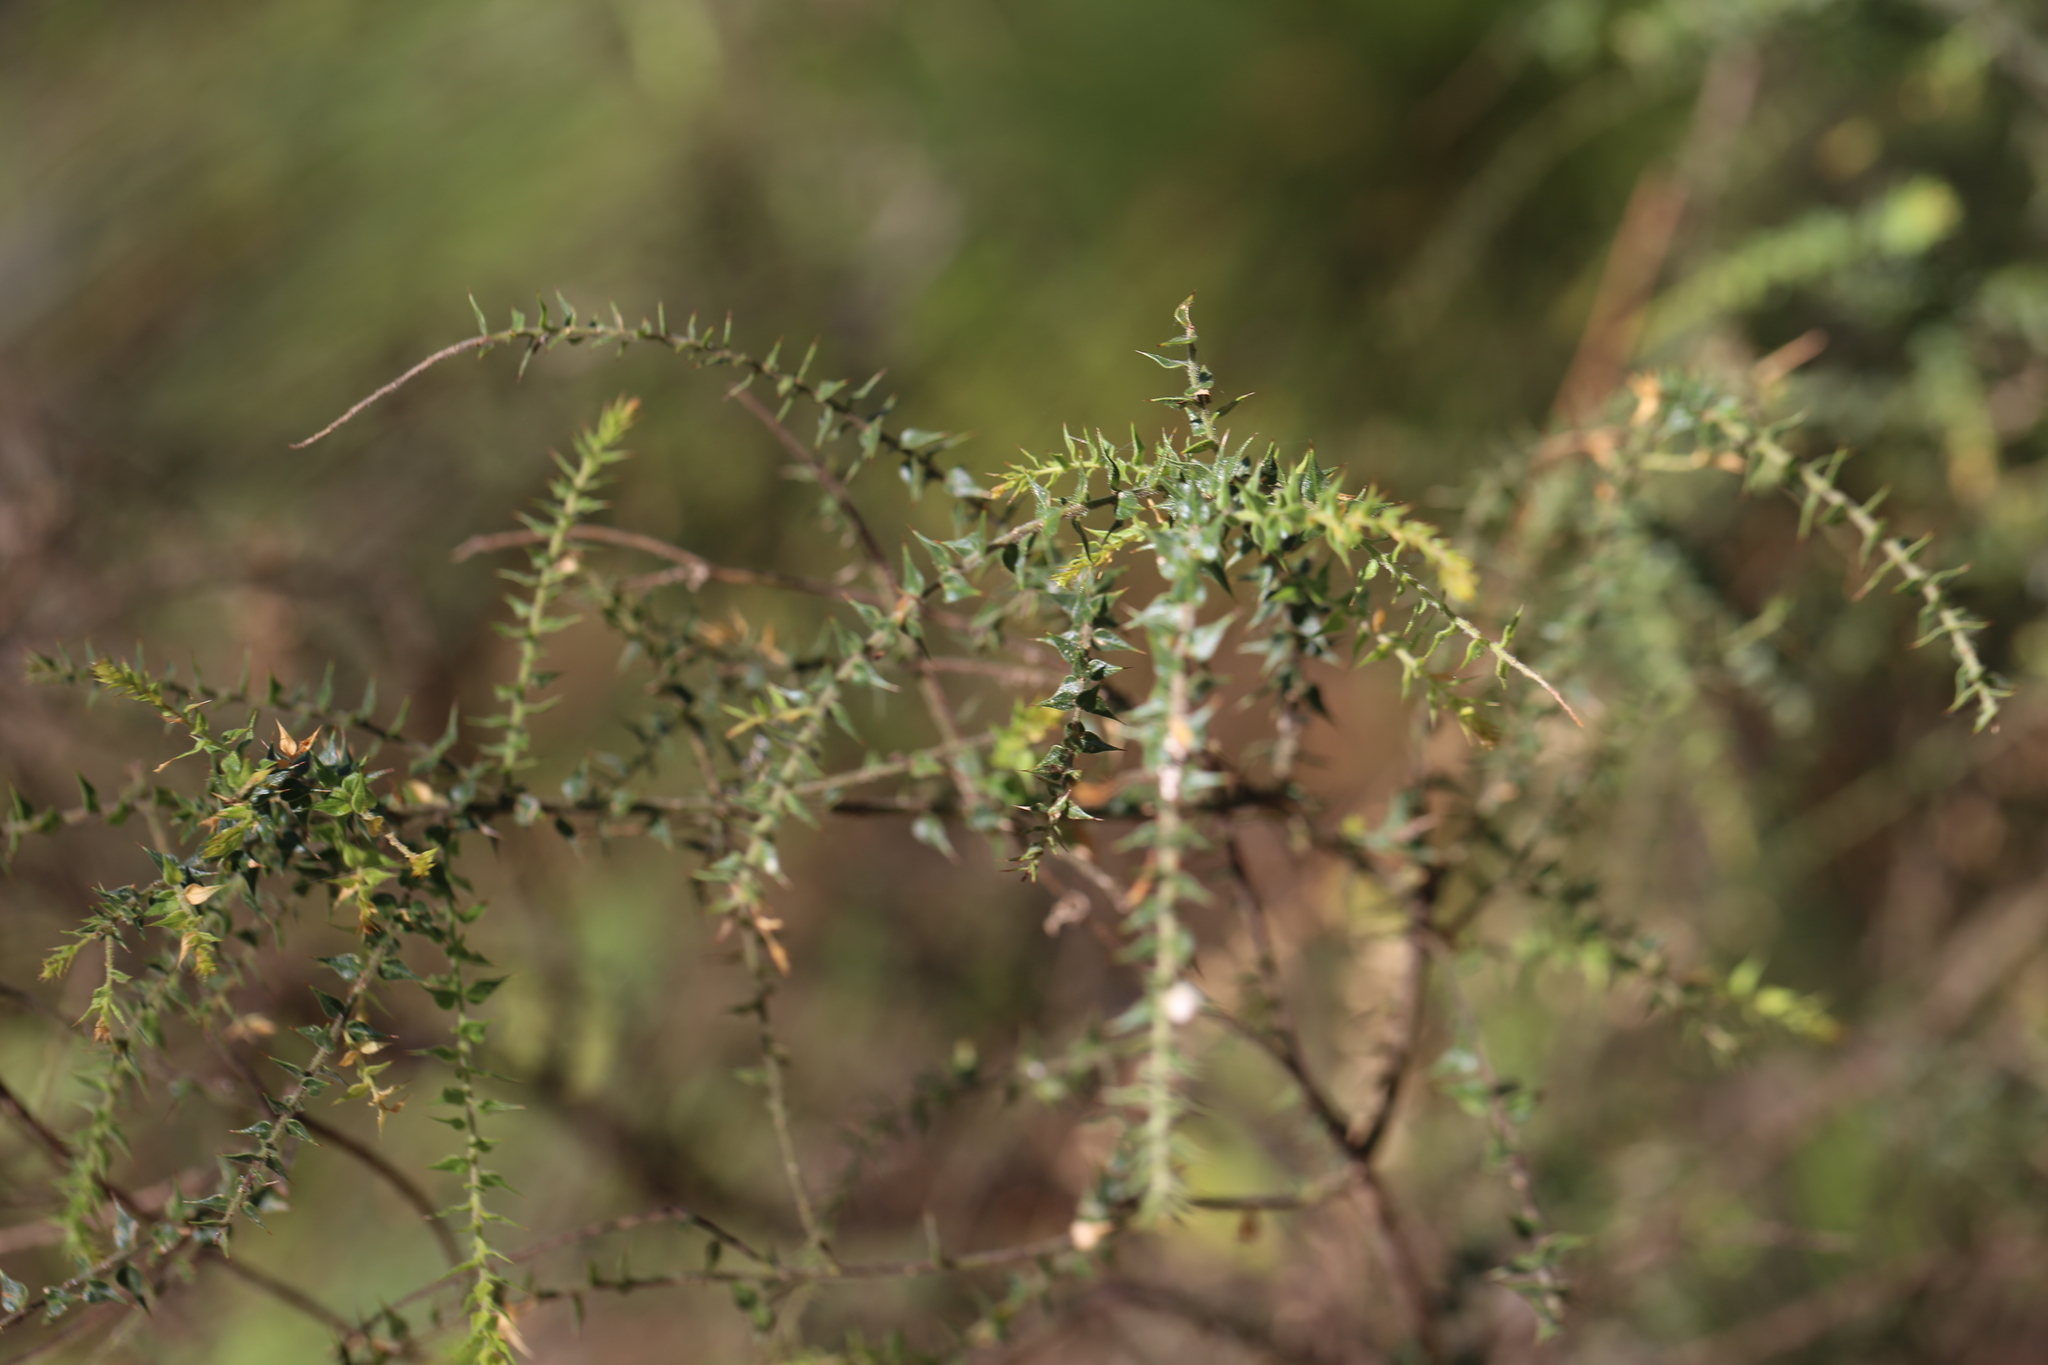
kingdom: Plantae
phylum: Tracheophyta
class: Magnoliopsida
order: Fabales
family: Fabaceae
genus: Daviesia
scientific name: Daviesia villifera
